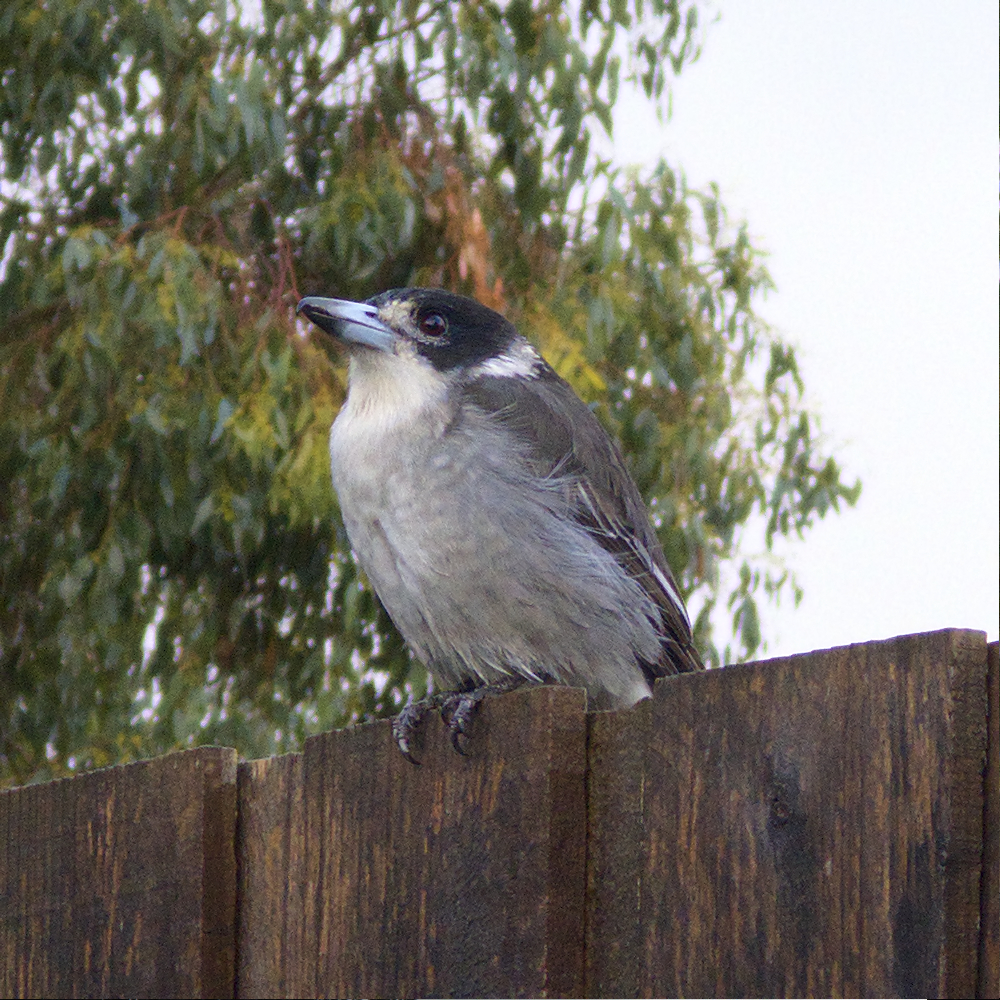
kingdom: Animalia
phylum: Chordata
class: Aves
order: Passeriformes
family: Cracticidae
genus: Cracticus
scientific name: Cracticus torquatus
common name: Grey butcherbird
